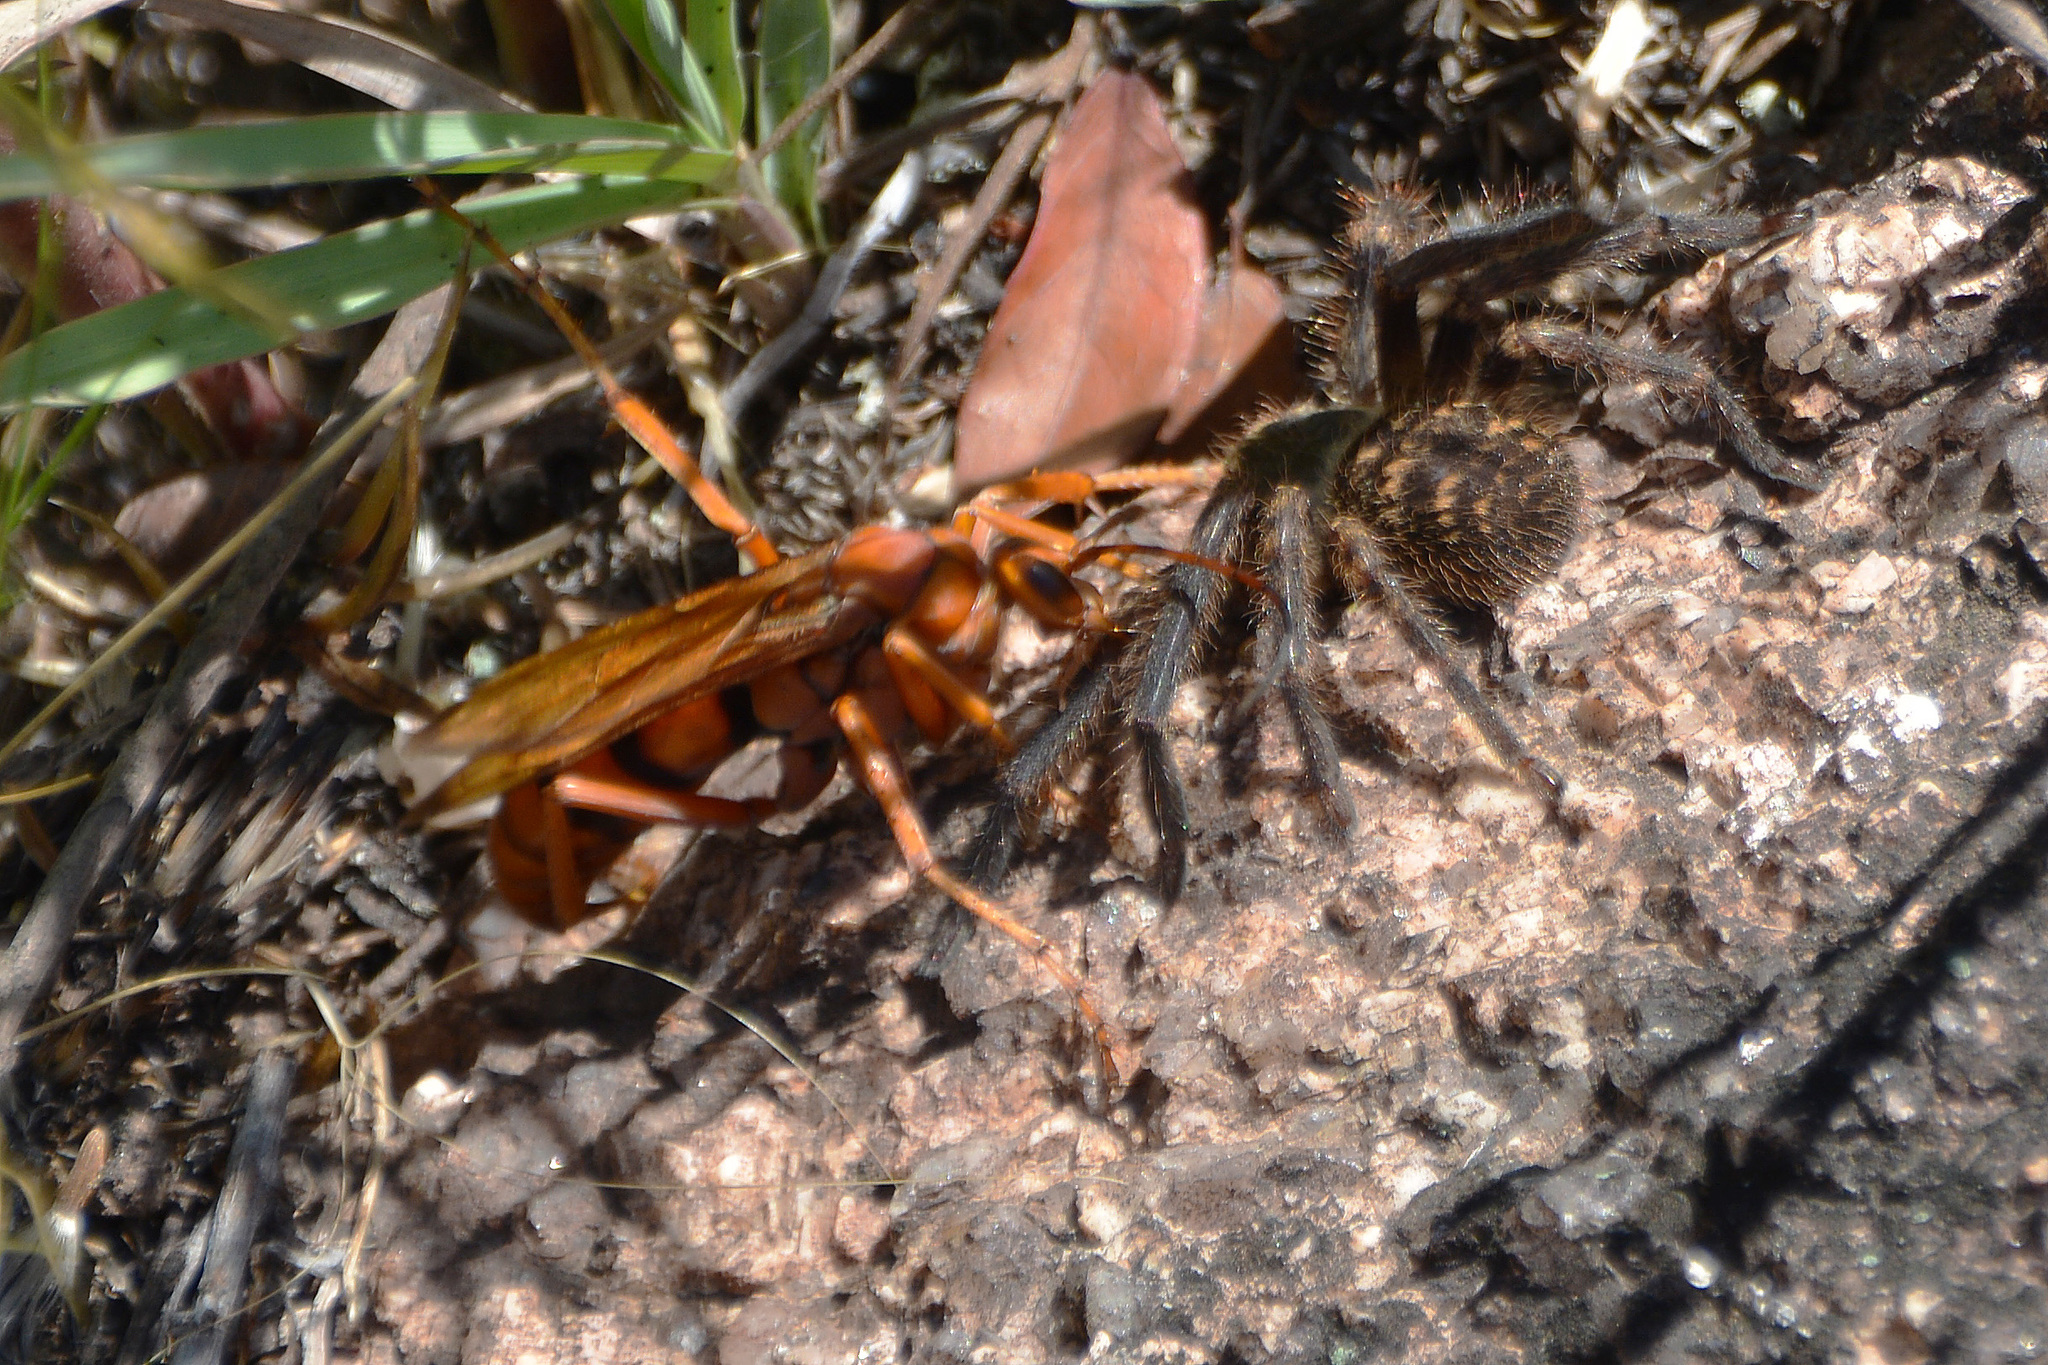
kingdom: Animalia
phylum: Arthropoda
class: Arachnida
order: Araneae
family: Sparassidae
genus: Polybetes
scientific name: Polybetes pythagoricus
